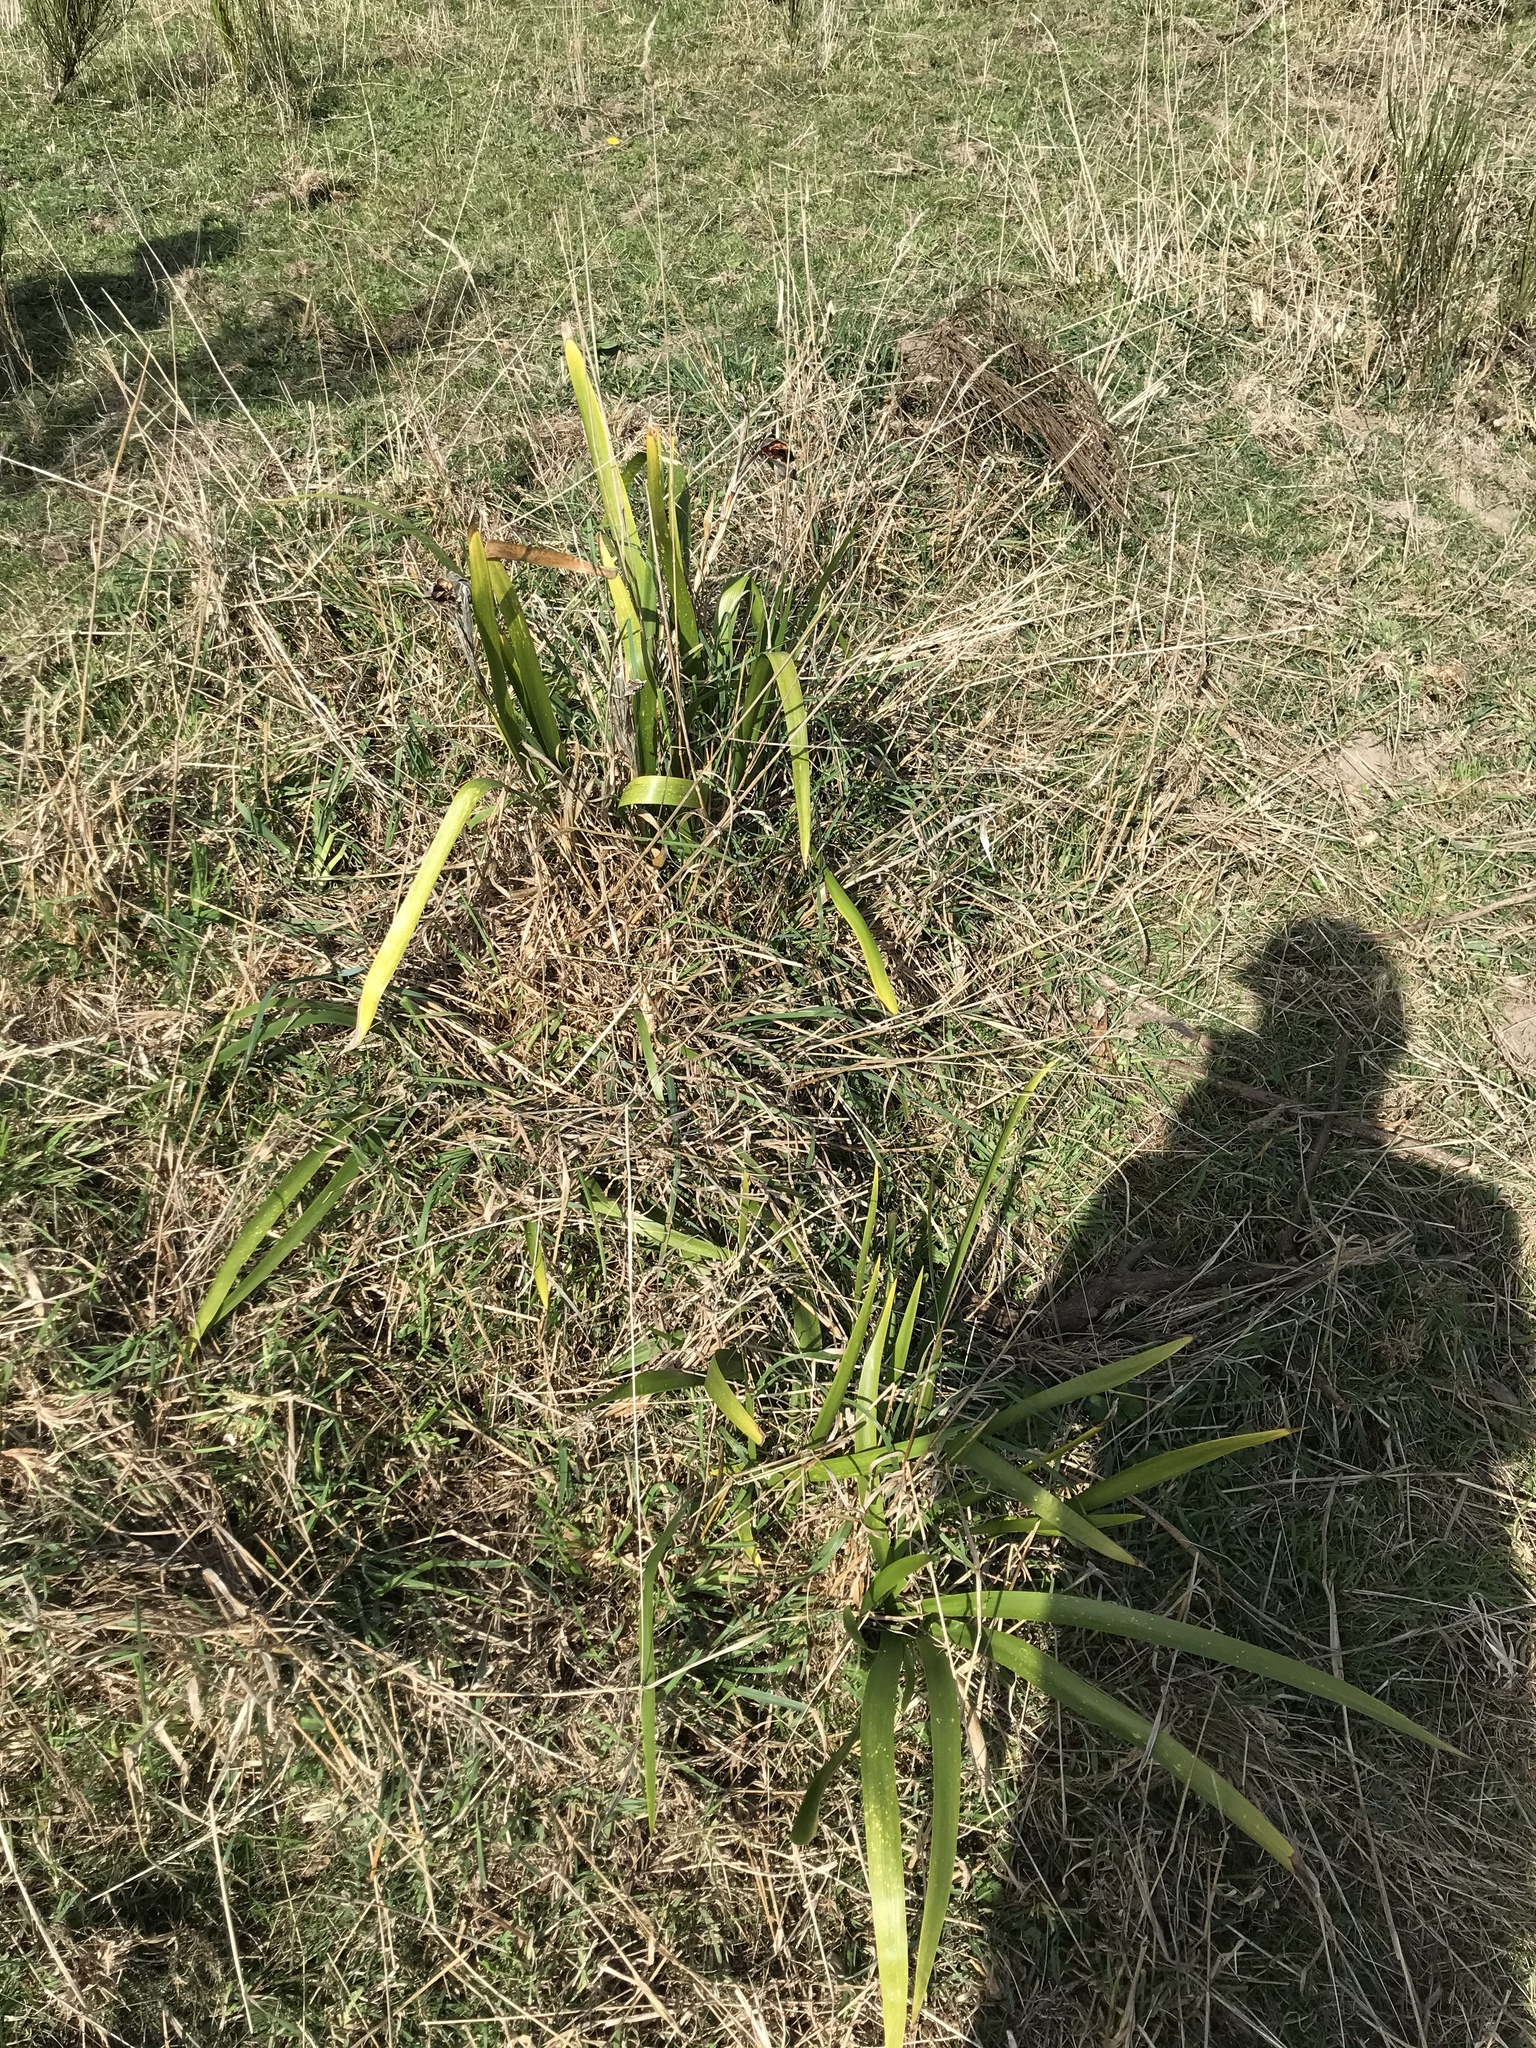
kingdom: Plantae
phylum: Tracheophyta
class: Liliopsida
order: Asparagales
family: Iridaceae
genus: Iris
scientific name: Iris foetidissima
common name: Stinking iris
